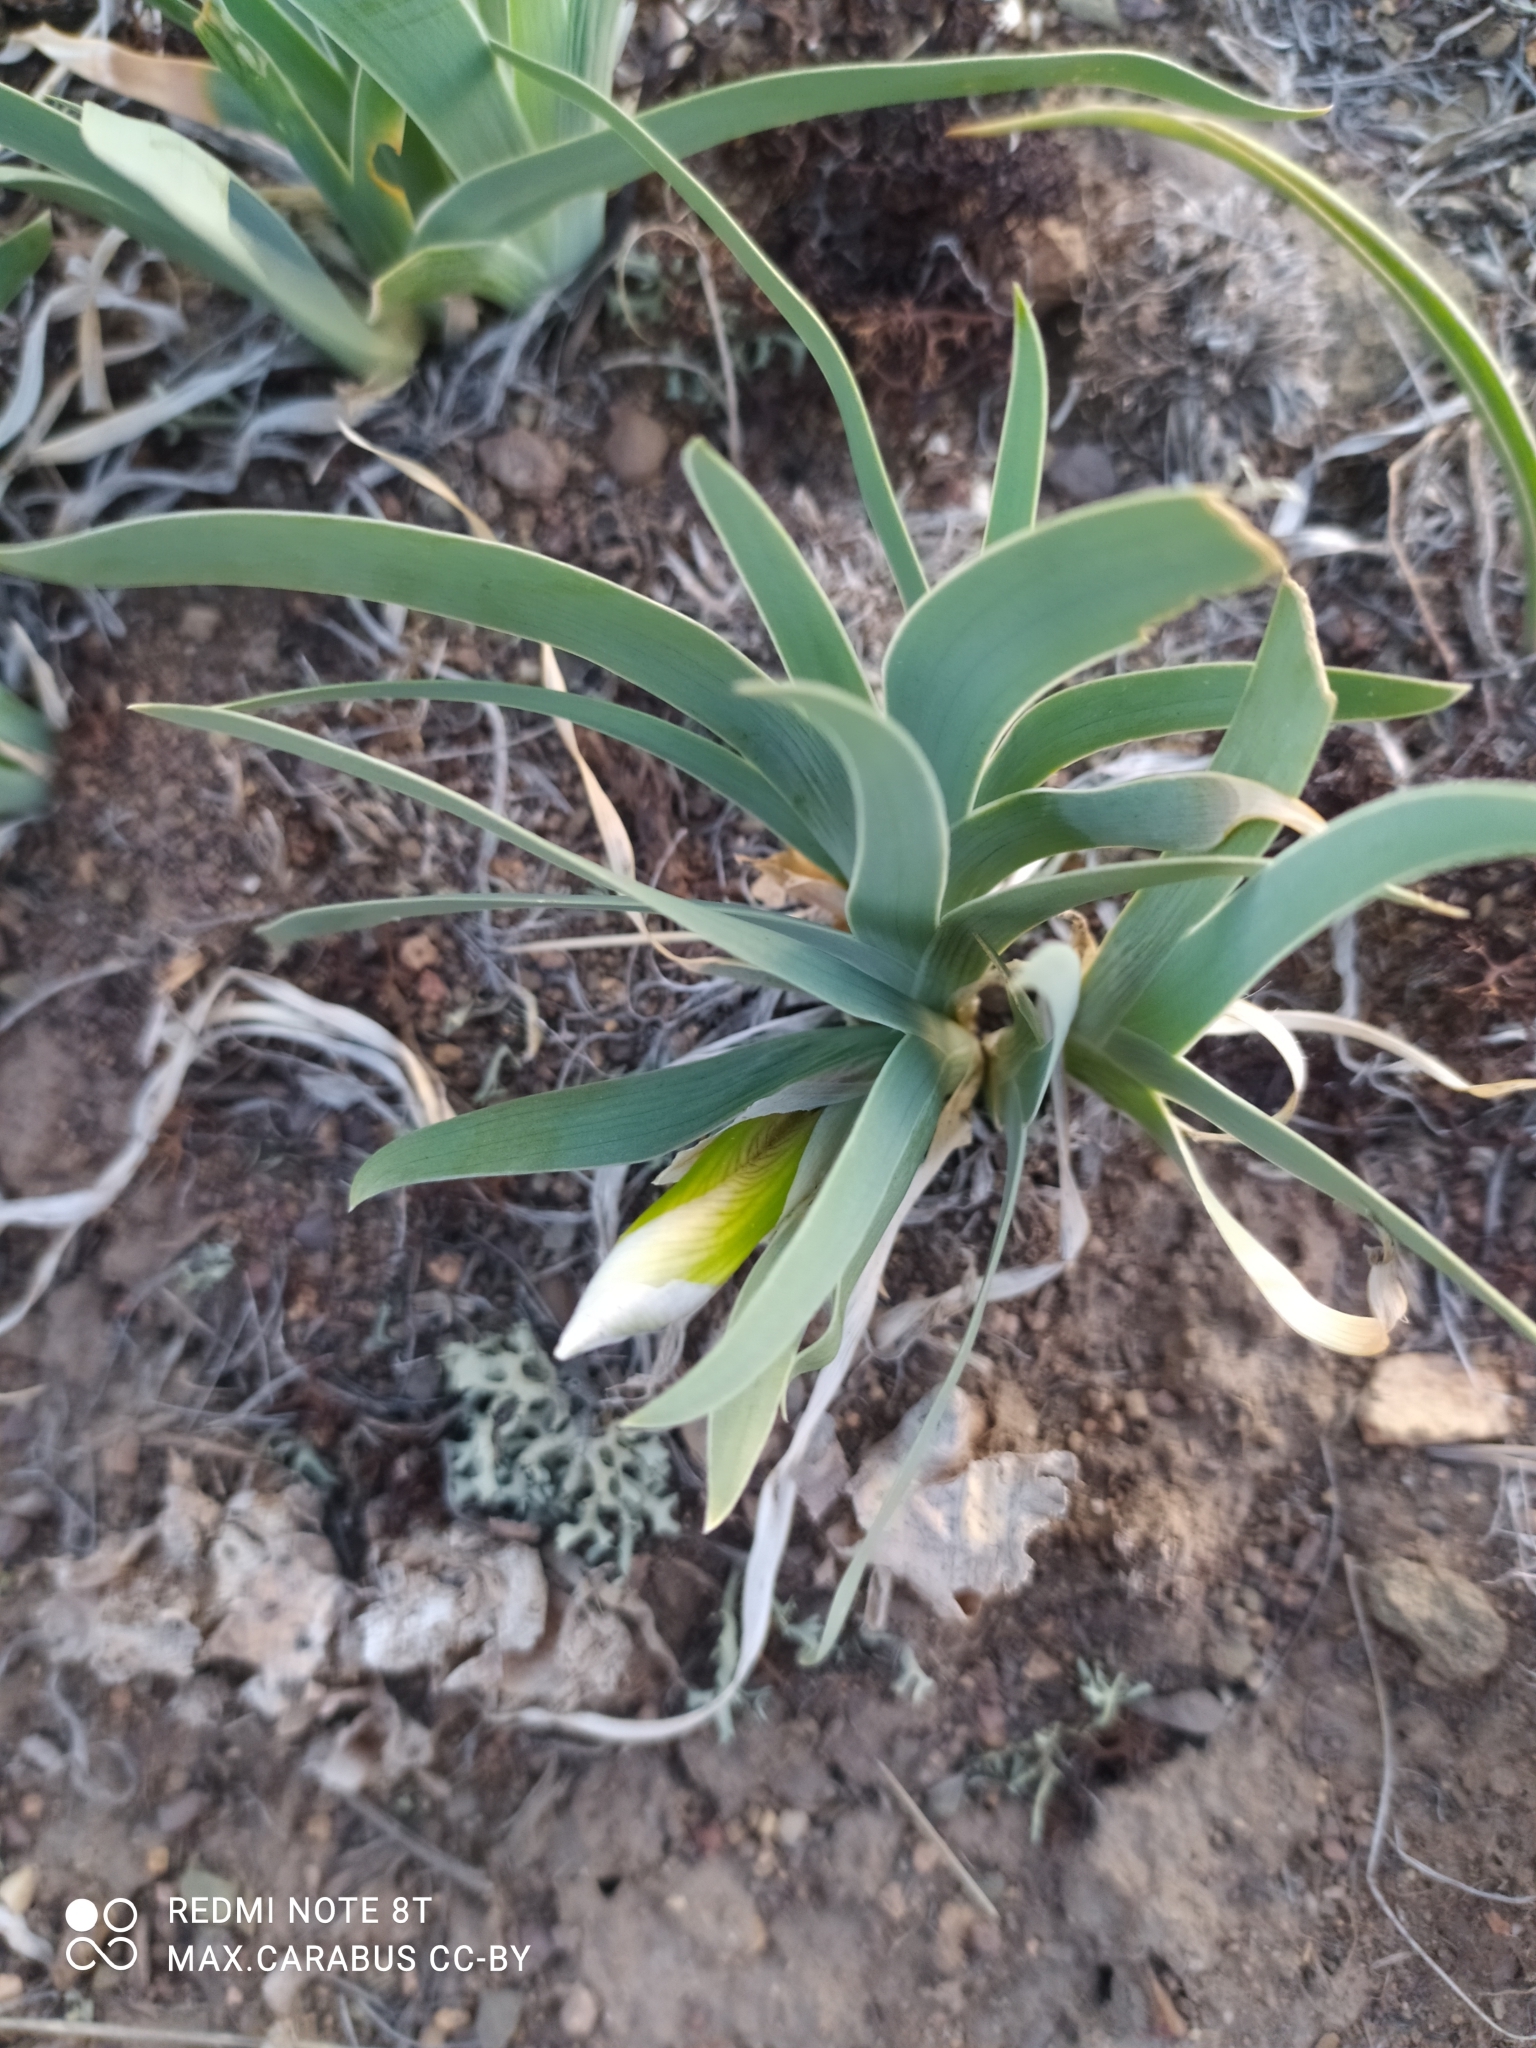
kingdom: Plantae
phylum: Tracheophyta
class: Liliopsida
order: Asparagales
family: Iridaceae
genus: Iris
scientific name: Iris glaucescens
